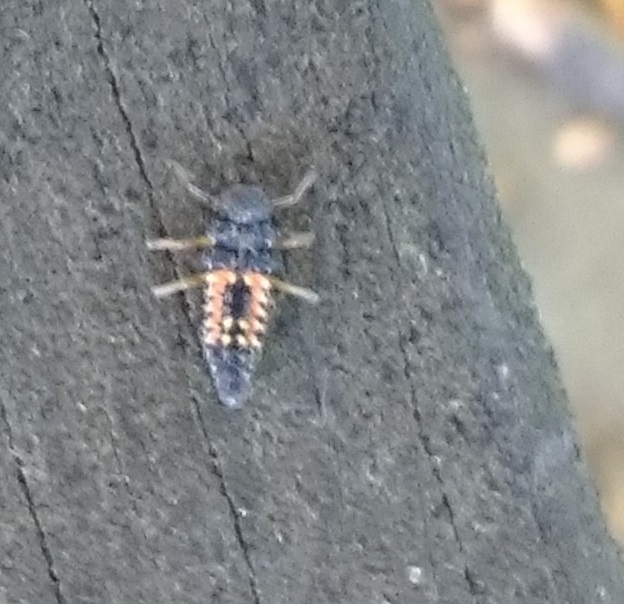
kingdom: Animalia
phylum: Arthropoda
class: Insecta
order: Coleoptera
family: Coccinellidae
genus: Harmonia
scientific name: Harmonia axyridis
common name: Harlequin ladybird
